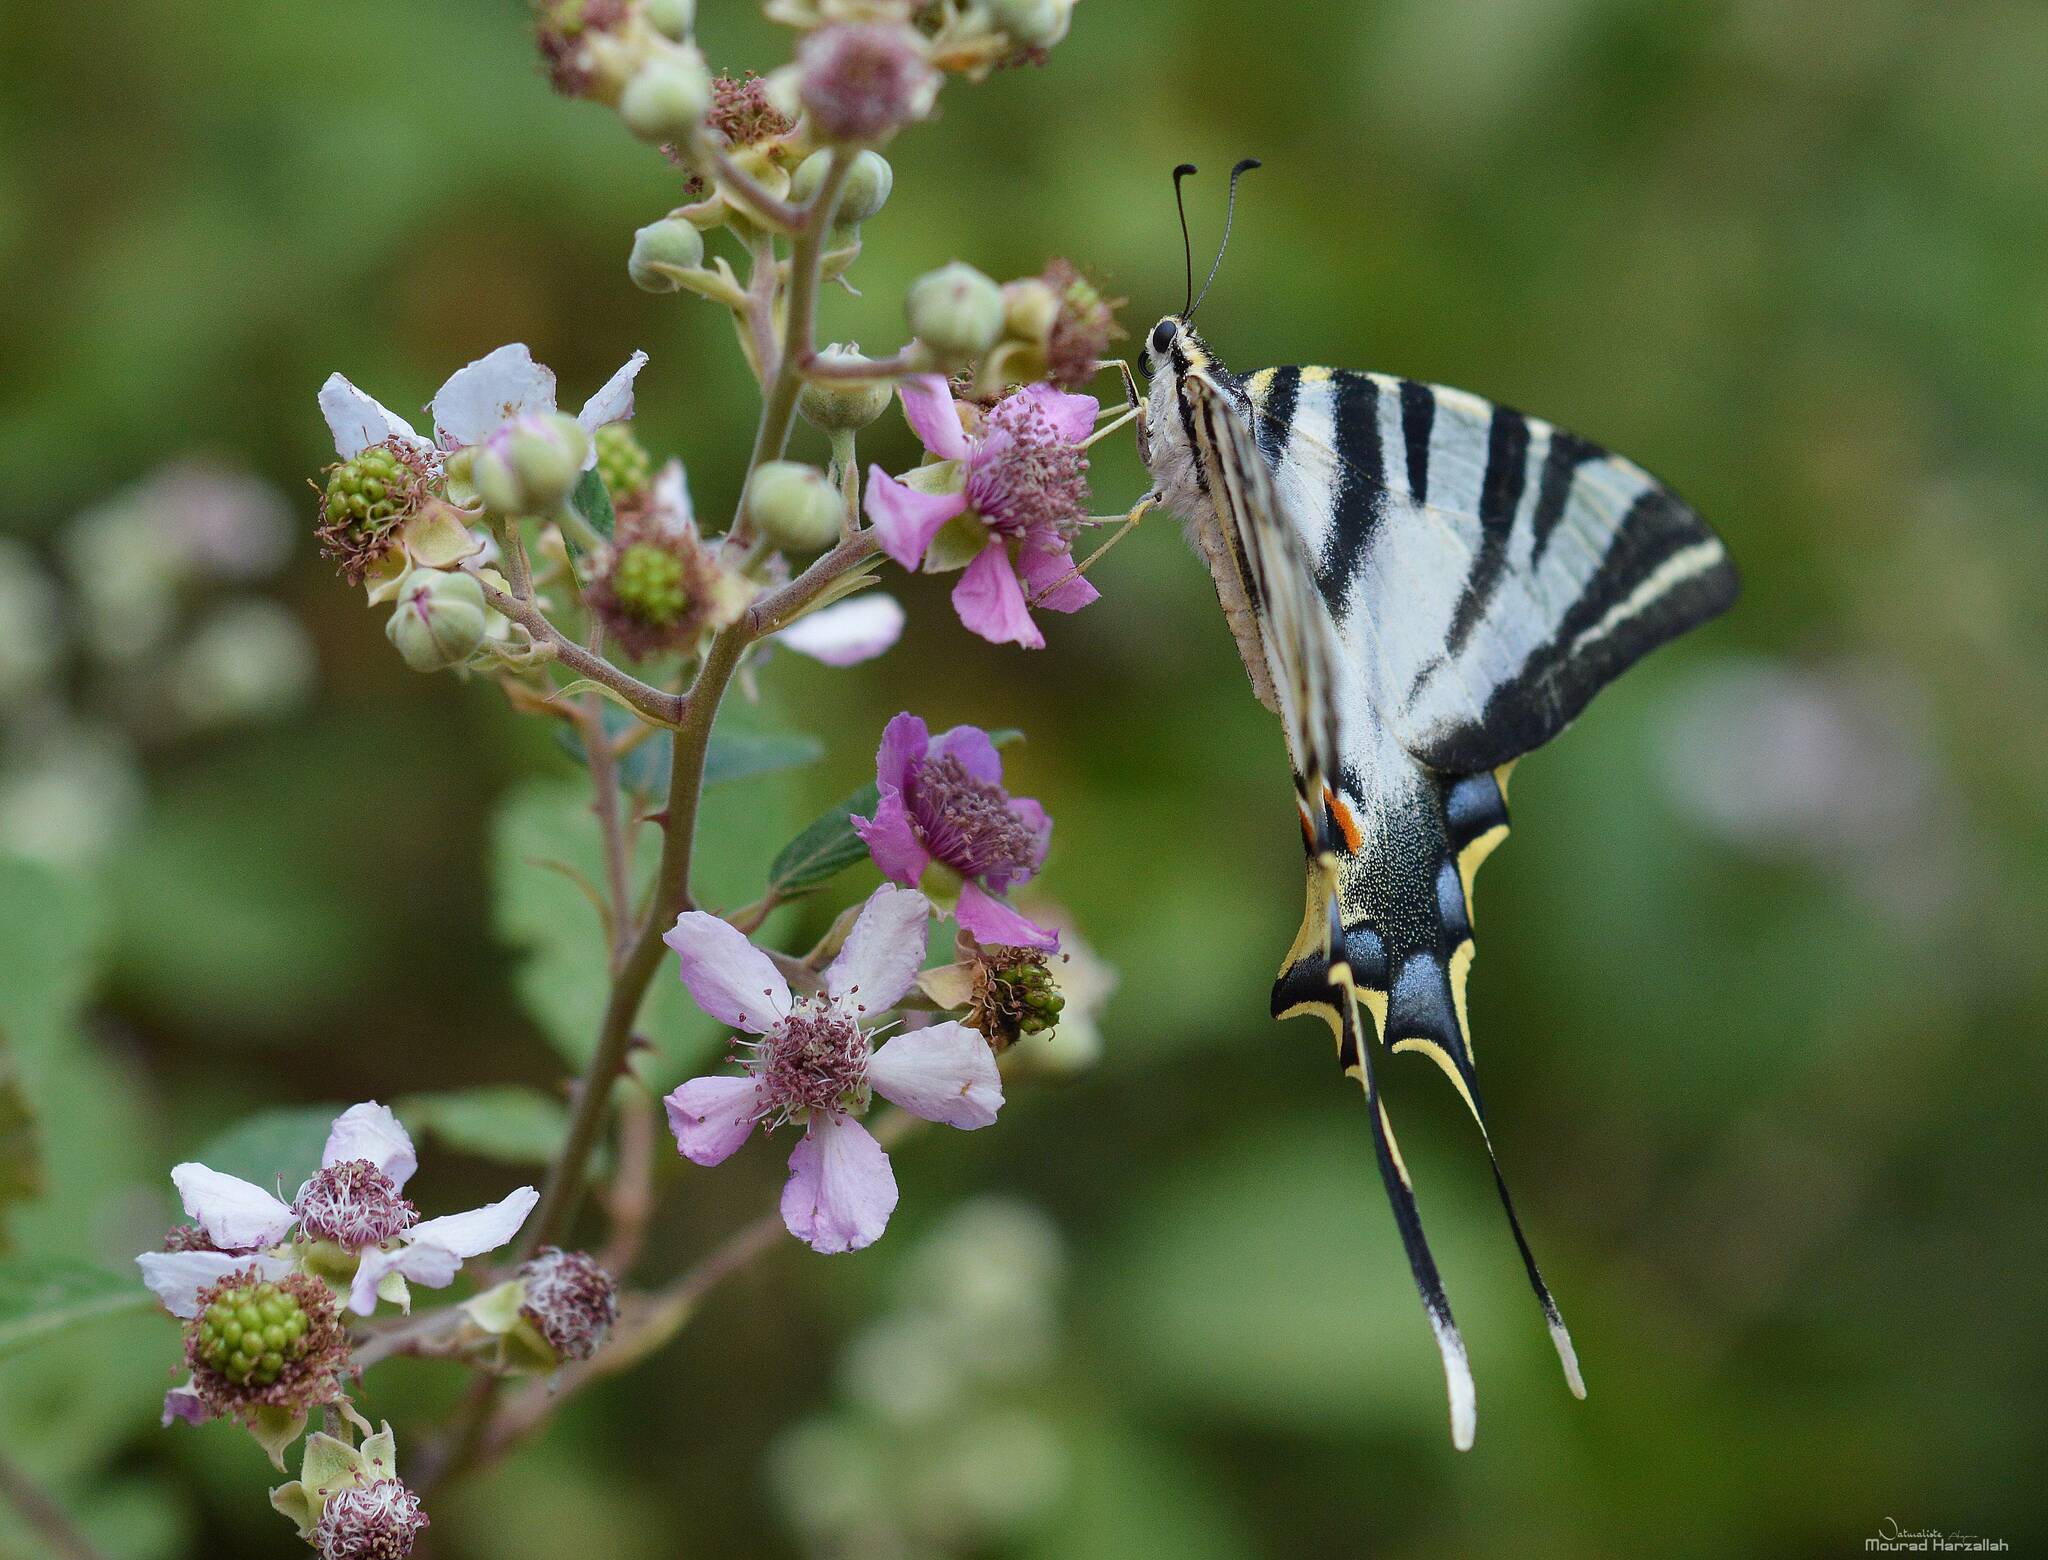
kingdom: Animalia
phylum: Arthropoda
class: Insecta
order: Lepidoptera
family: Papilionidae
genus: Iphiclides
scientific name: Iphiclides feisthamelii
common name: Iberian scarce swallowtail
